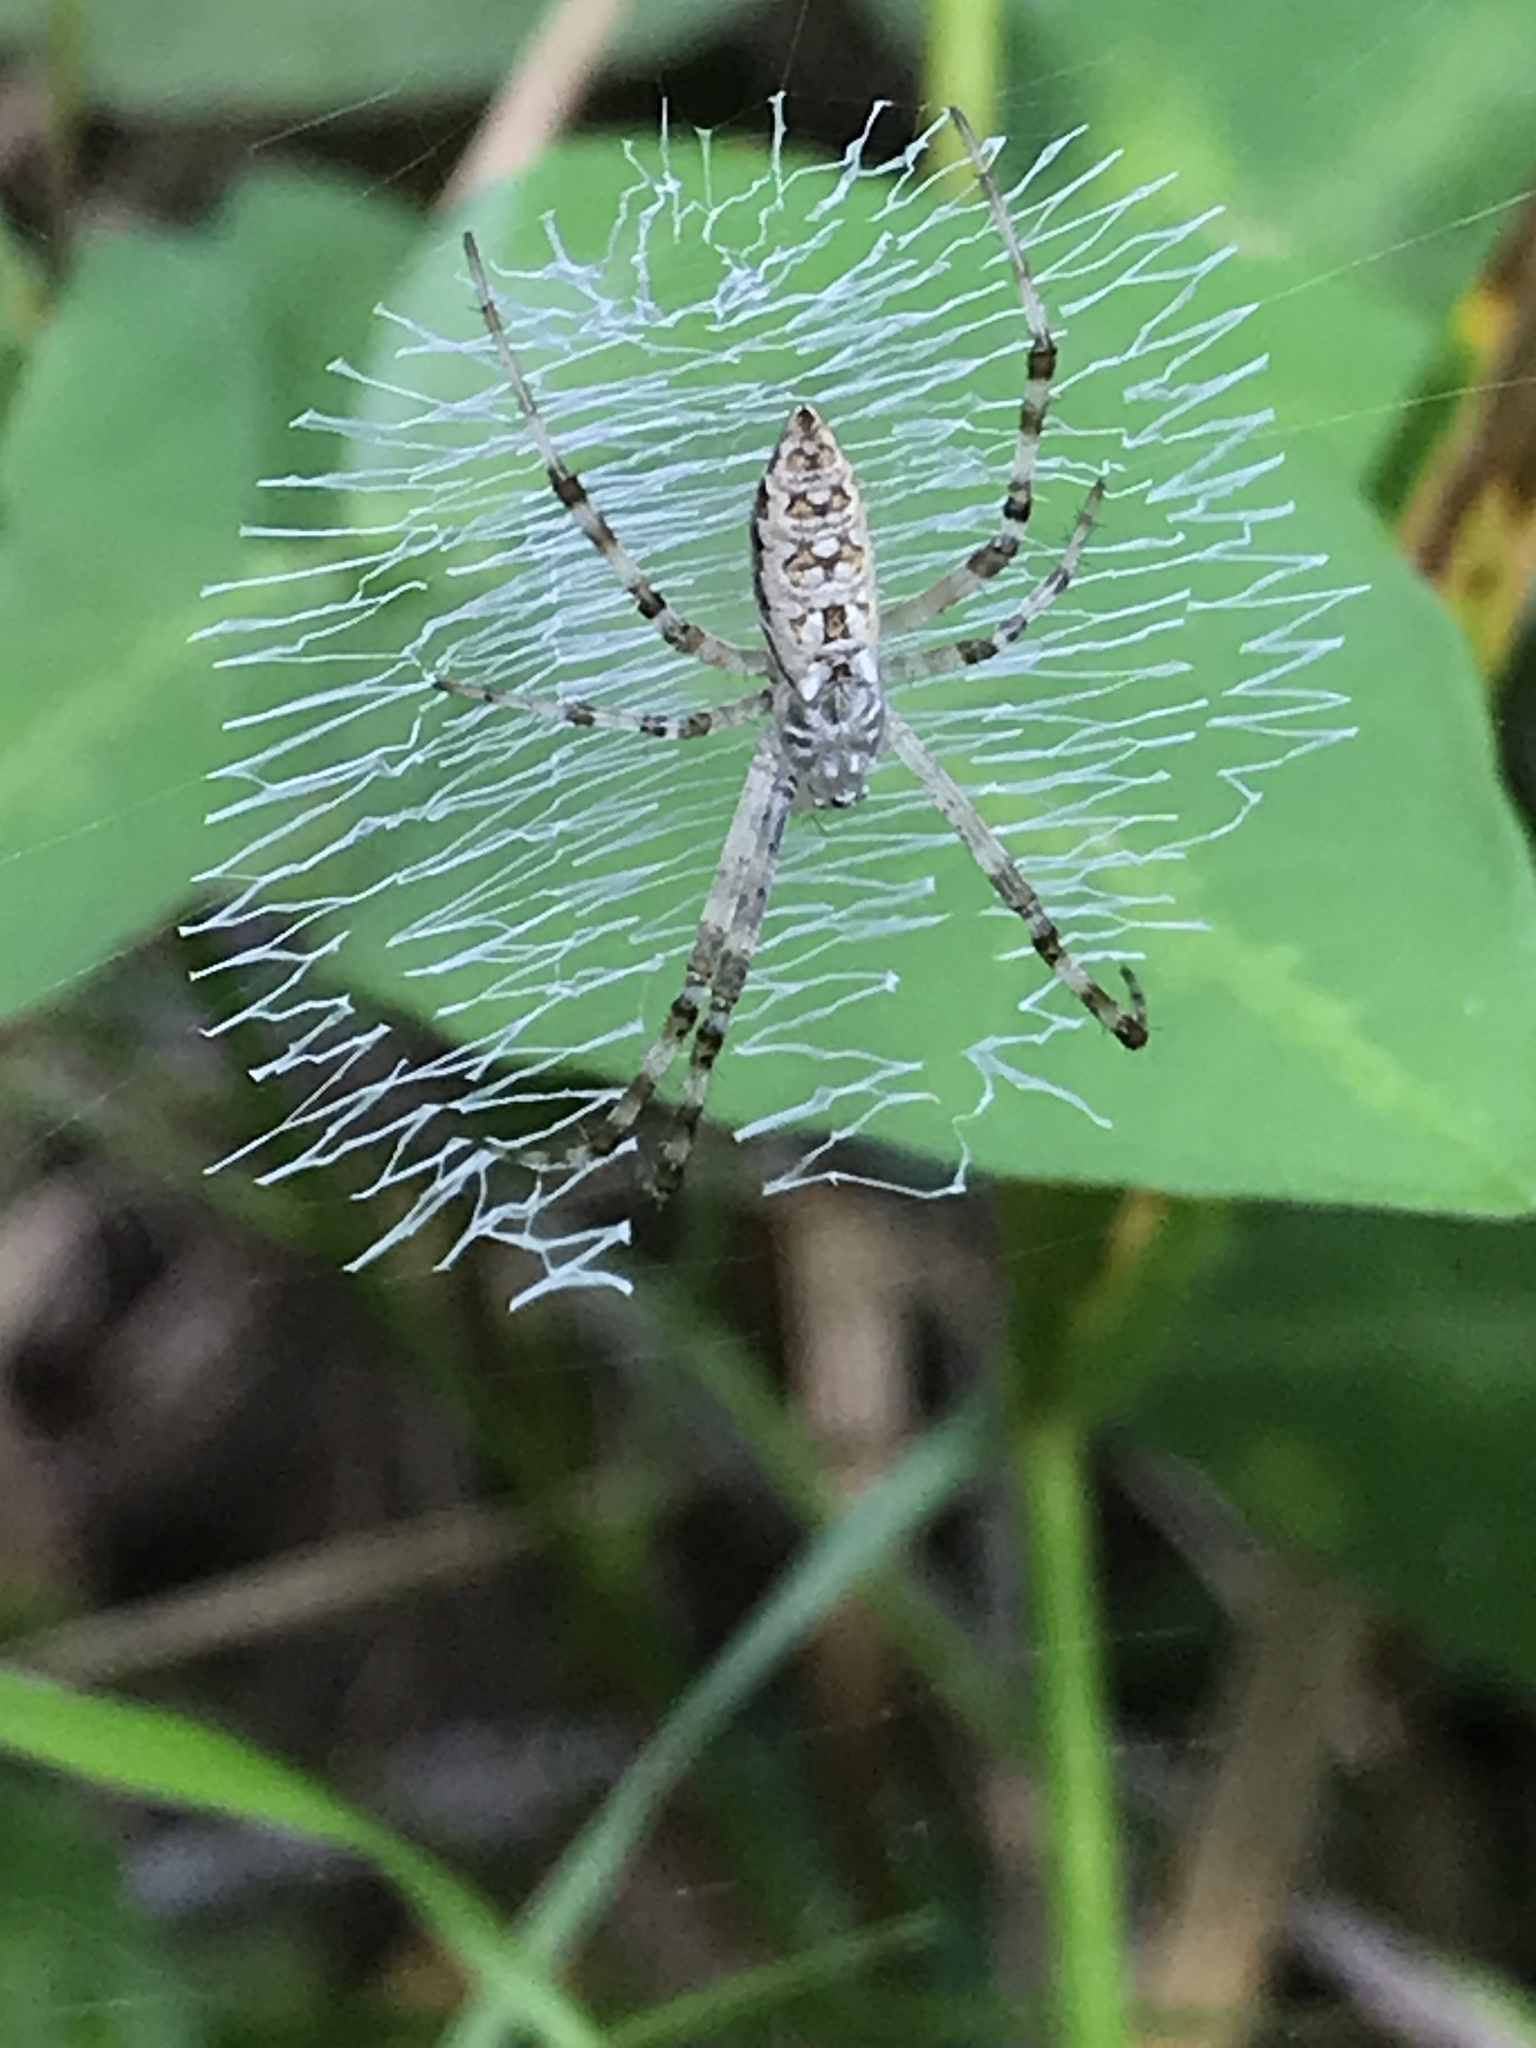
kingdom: Animalia
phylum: Arthropoda
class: Arachnida
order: Araneae
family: Araneidae
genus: Argiope
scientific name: Argiope aurantia
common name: Orb weavers
